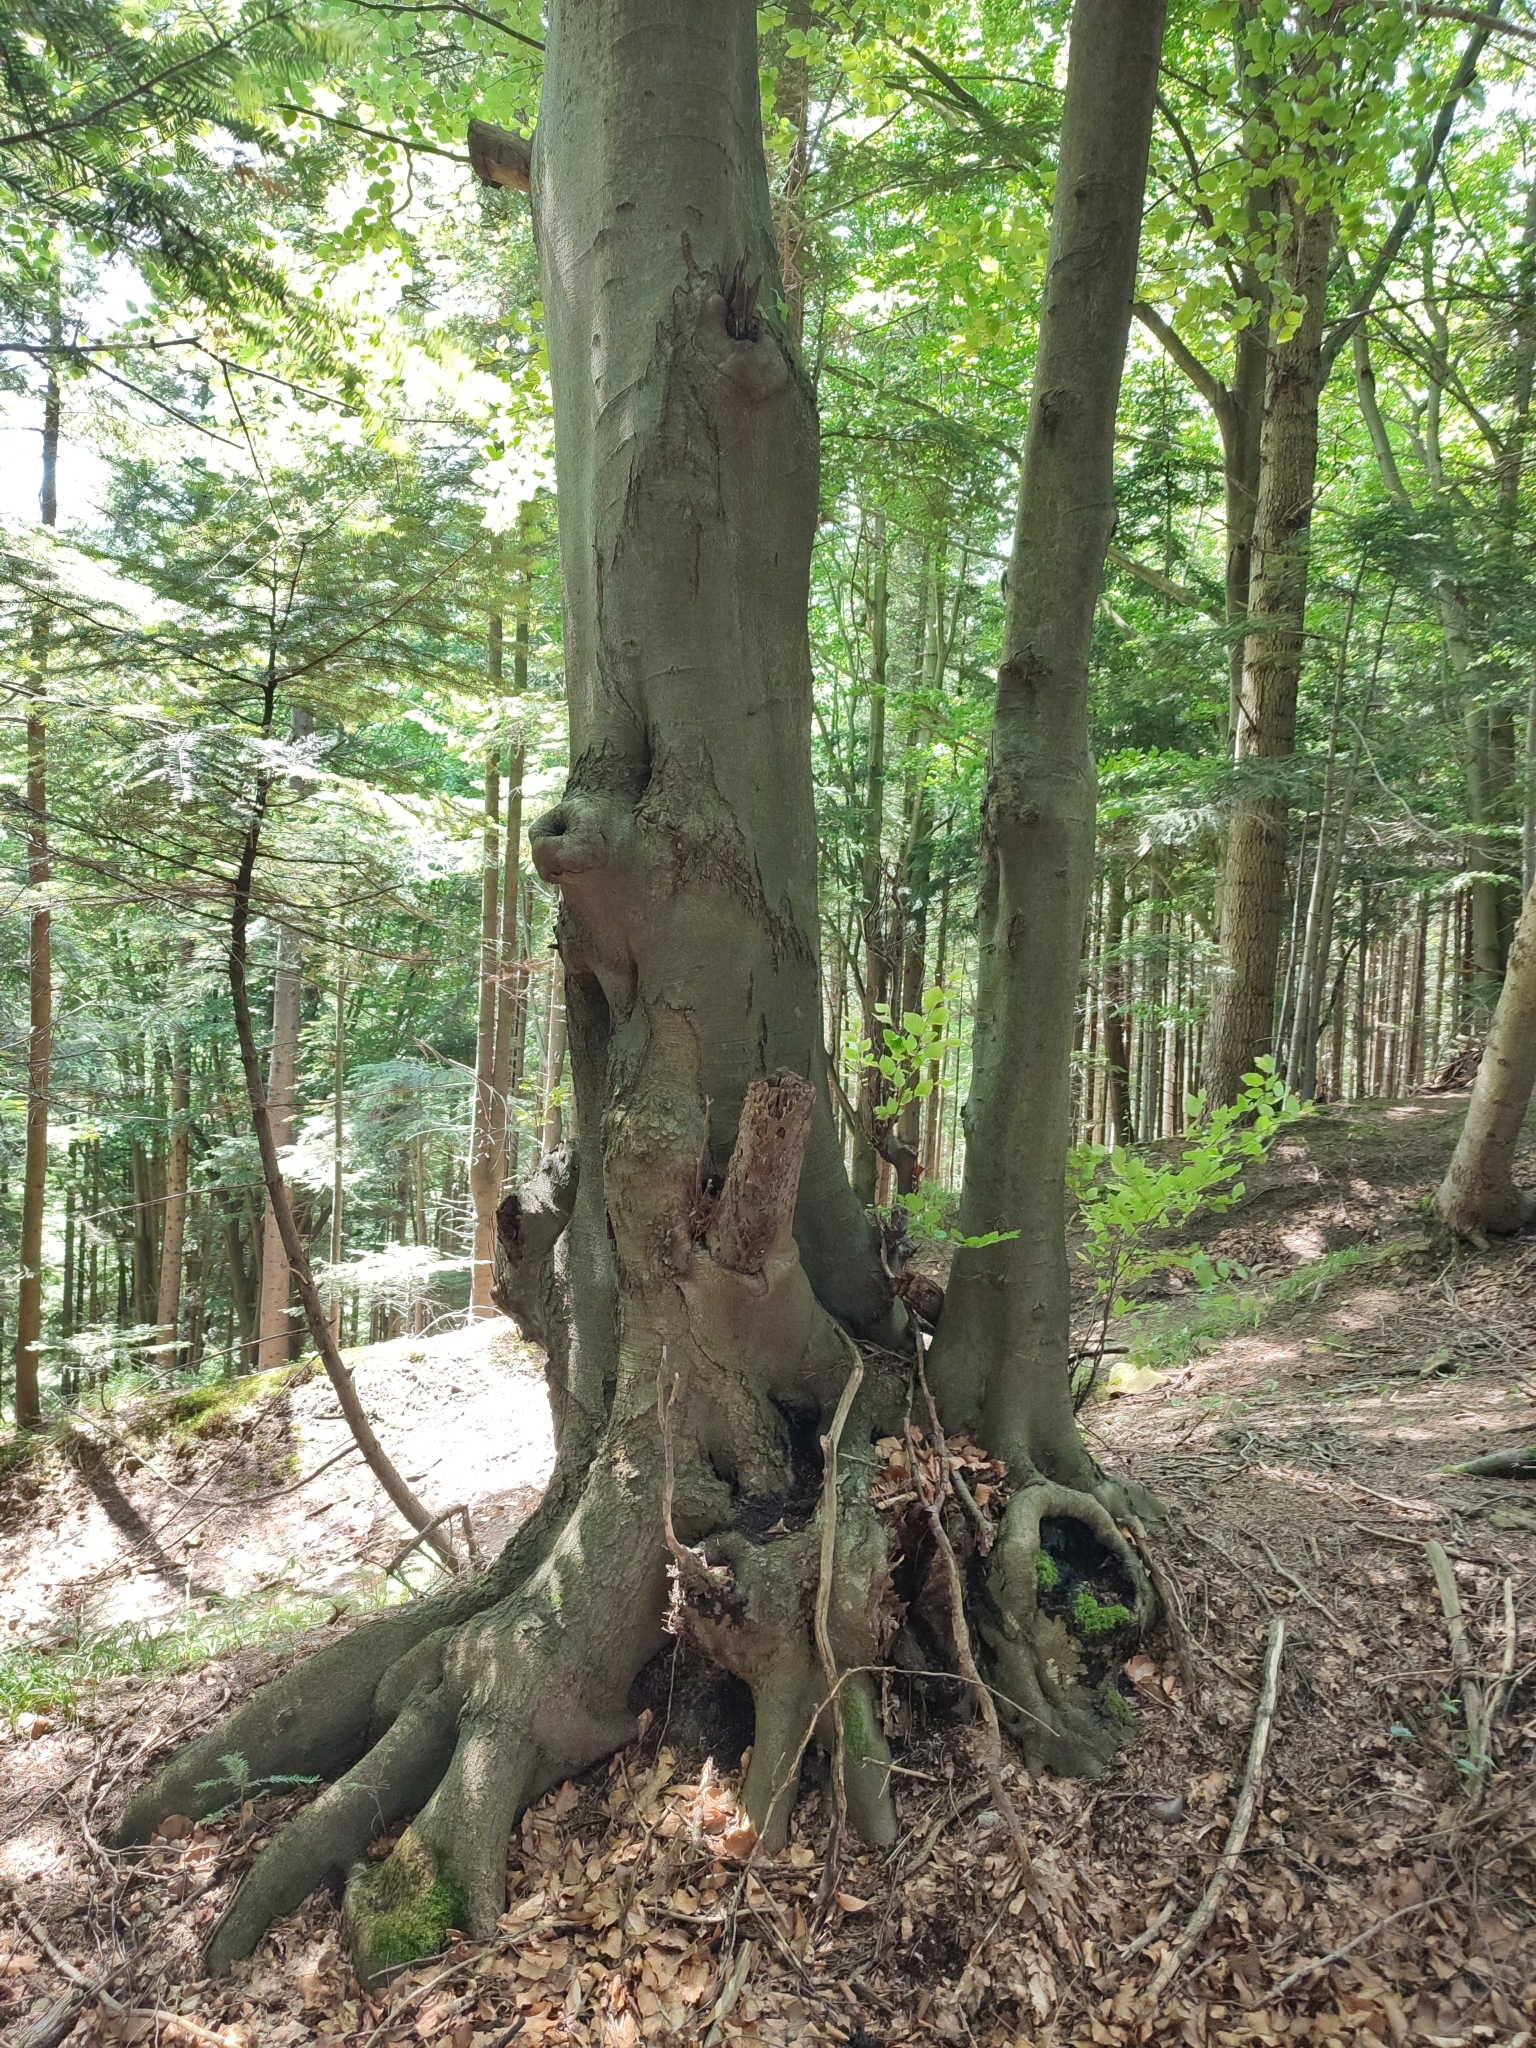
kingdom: Plantae
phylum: Tracheophyta
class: Magnoliopsida
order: Fagales
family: Fagaceae
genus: Fagus
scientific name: Fagus sylvatica
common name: Beech
